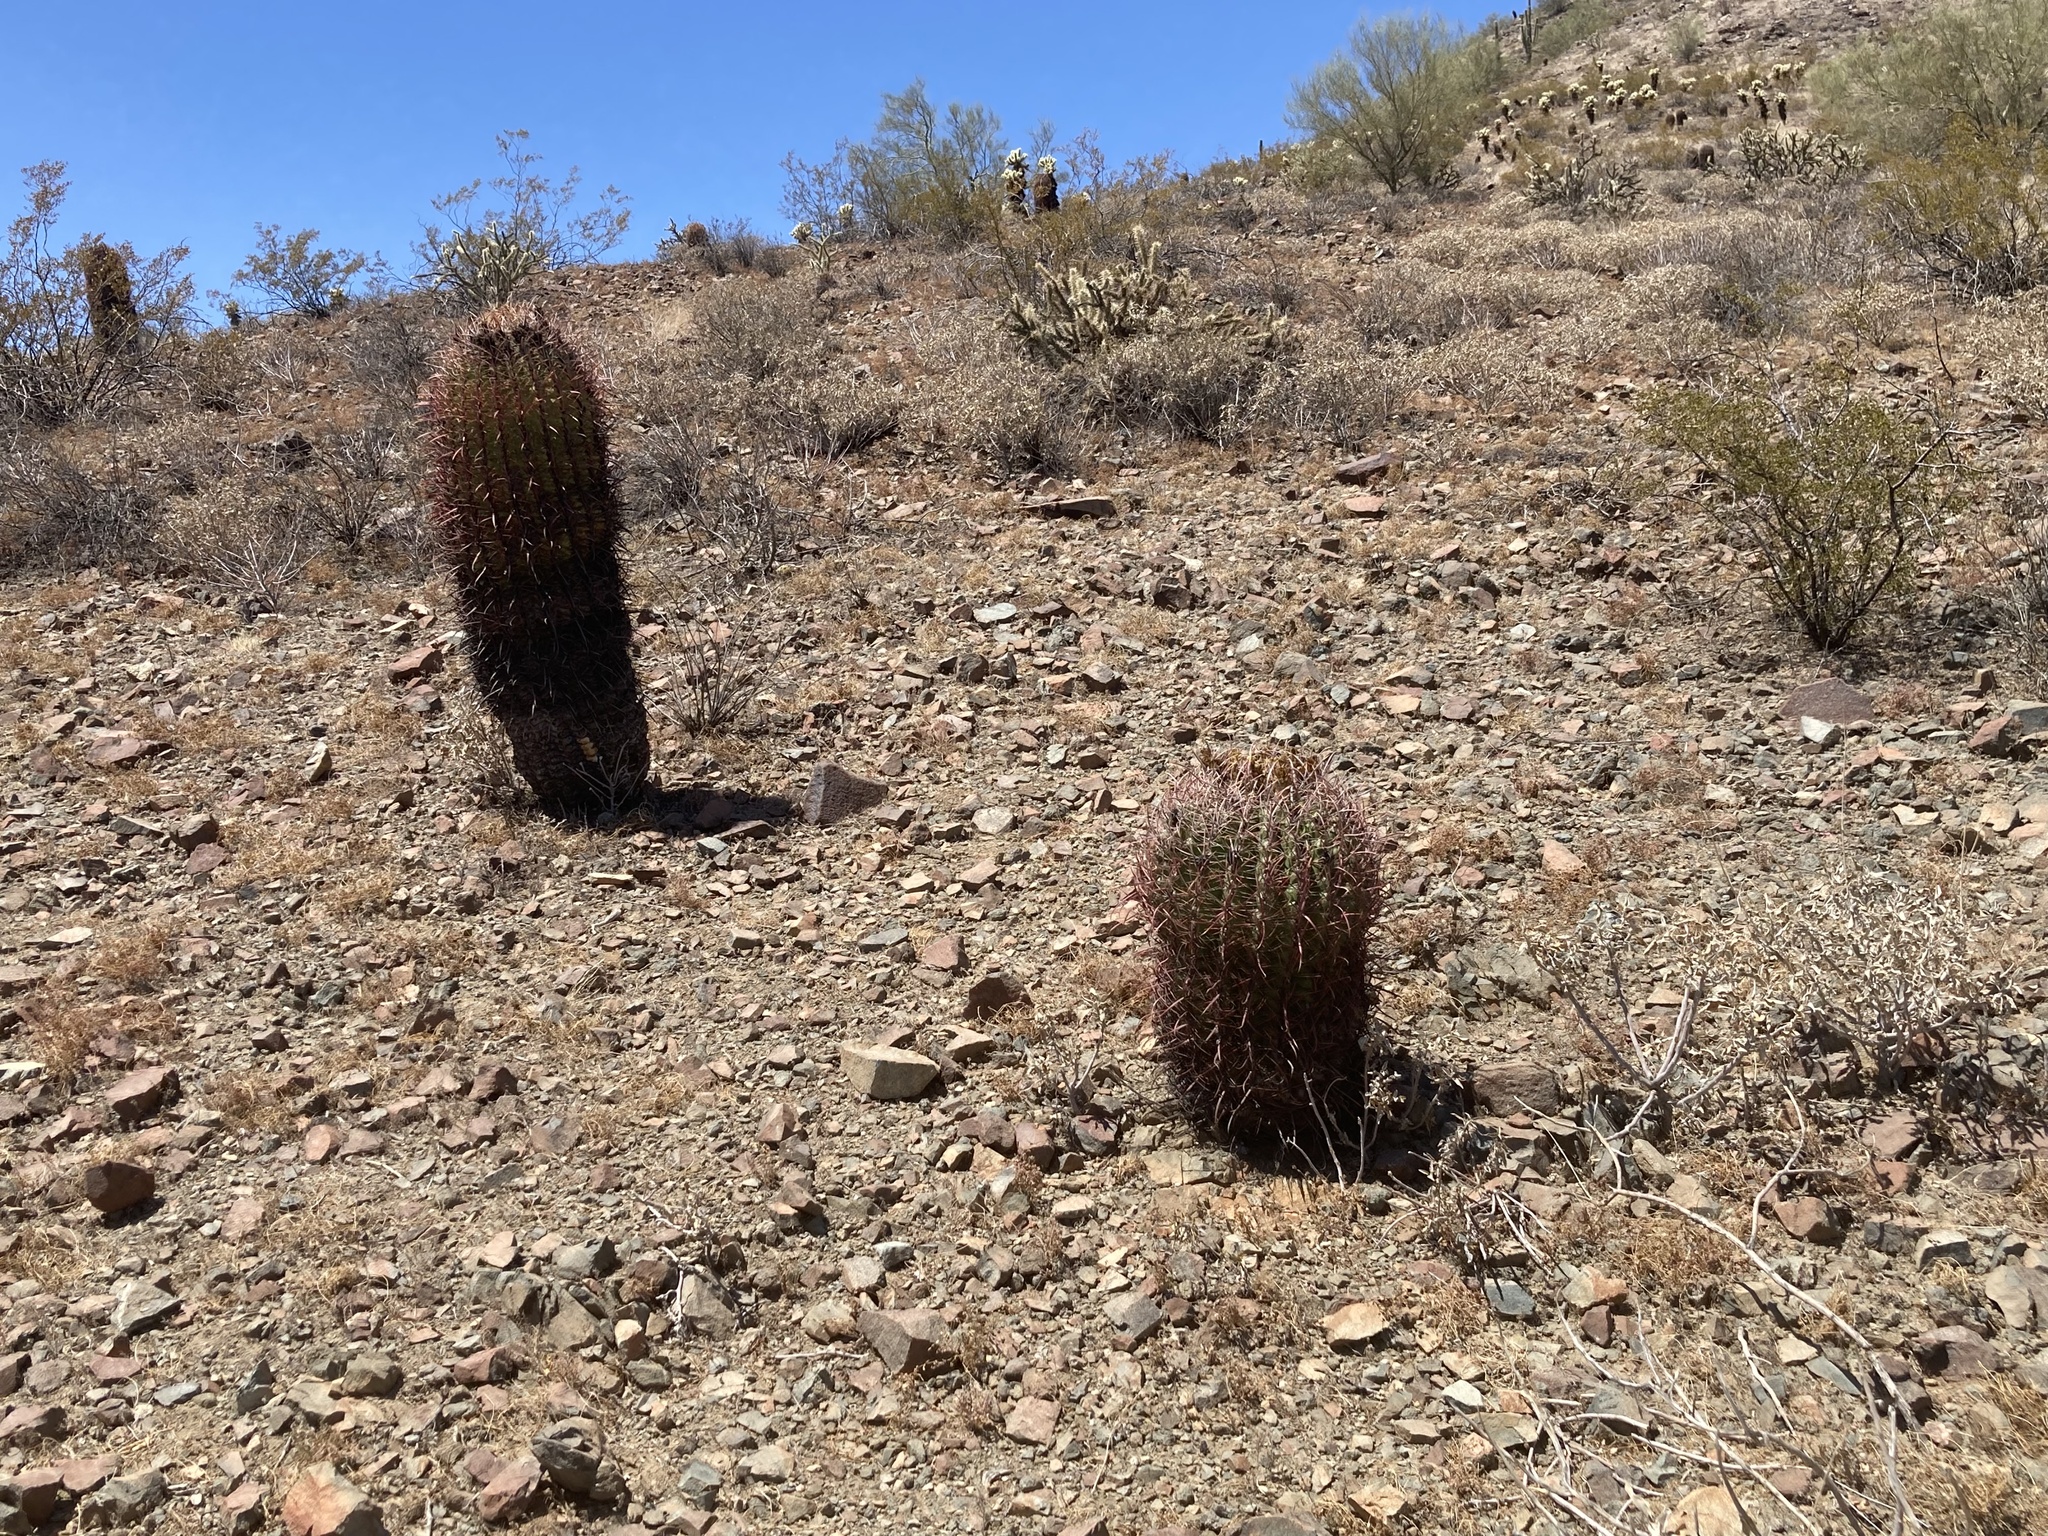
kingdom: Plantae
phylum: Tracheophyta
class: Magnoliopsida
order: Caryophyllales
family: Cactaceae
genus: Ferocactus
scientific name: Ferocactus cylindraceus
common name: California barrel cactus
